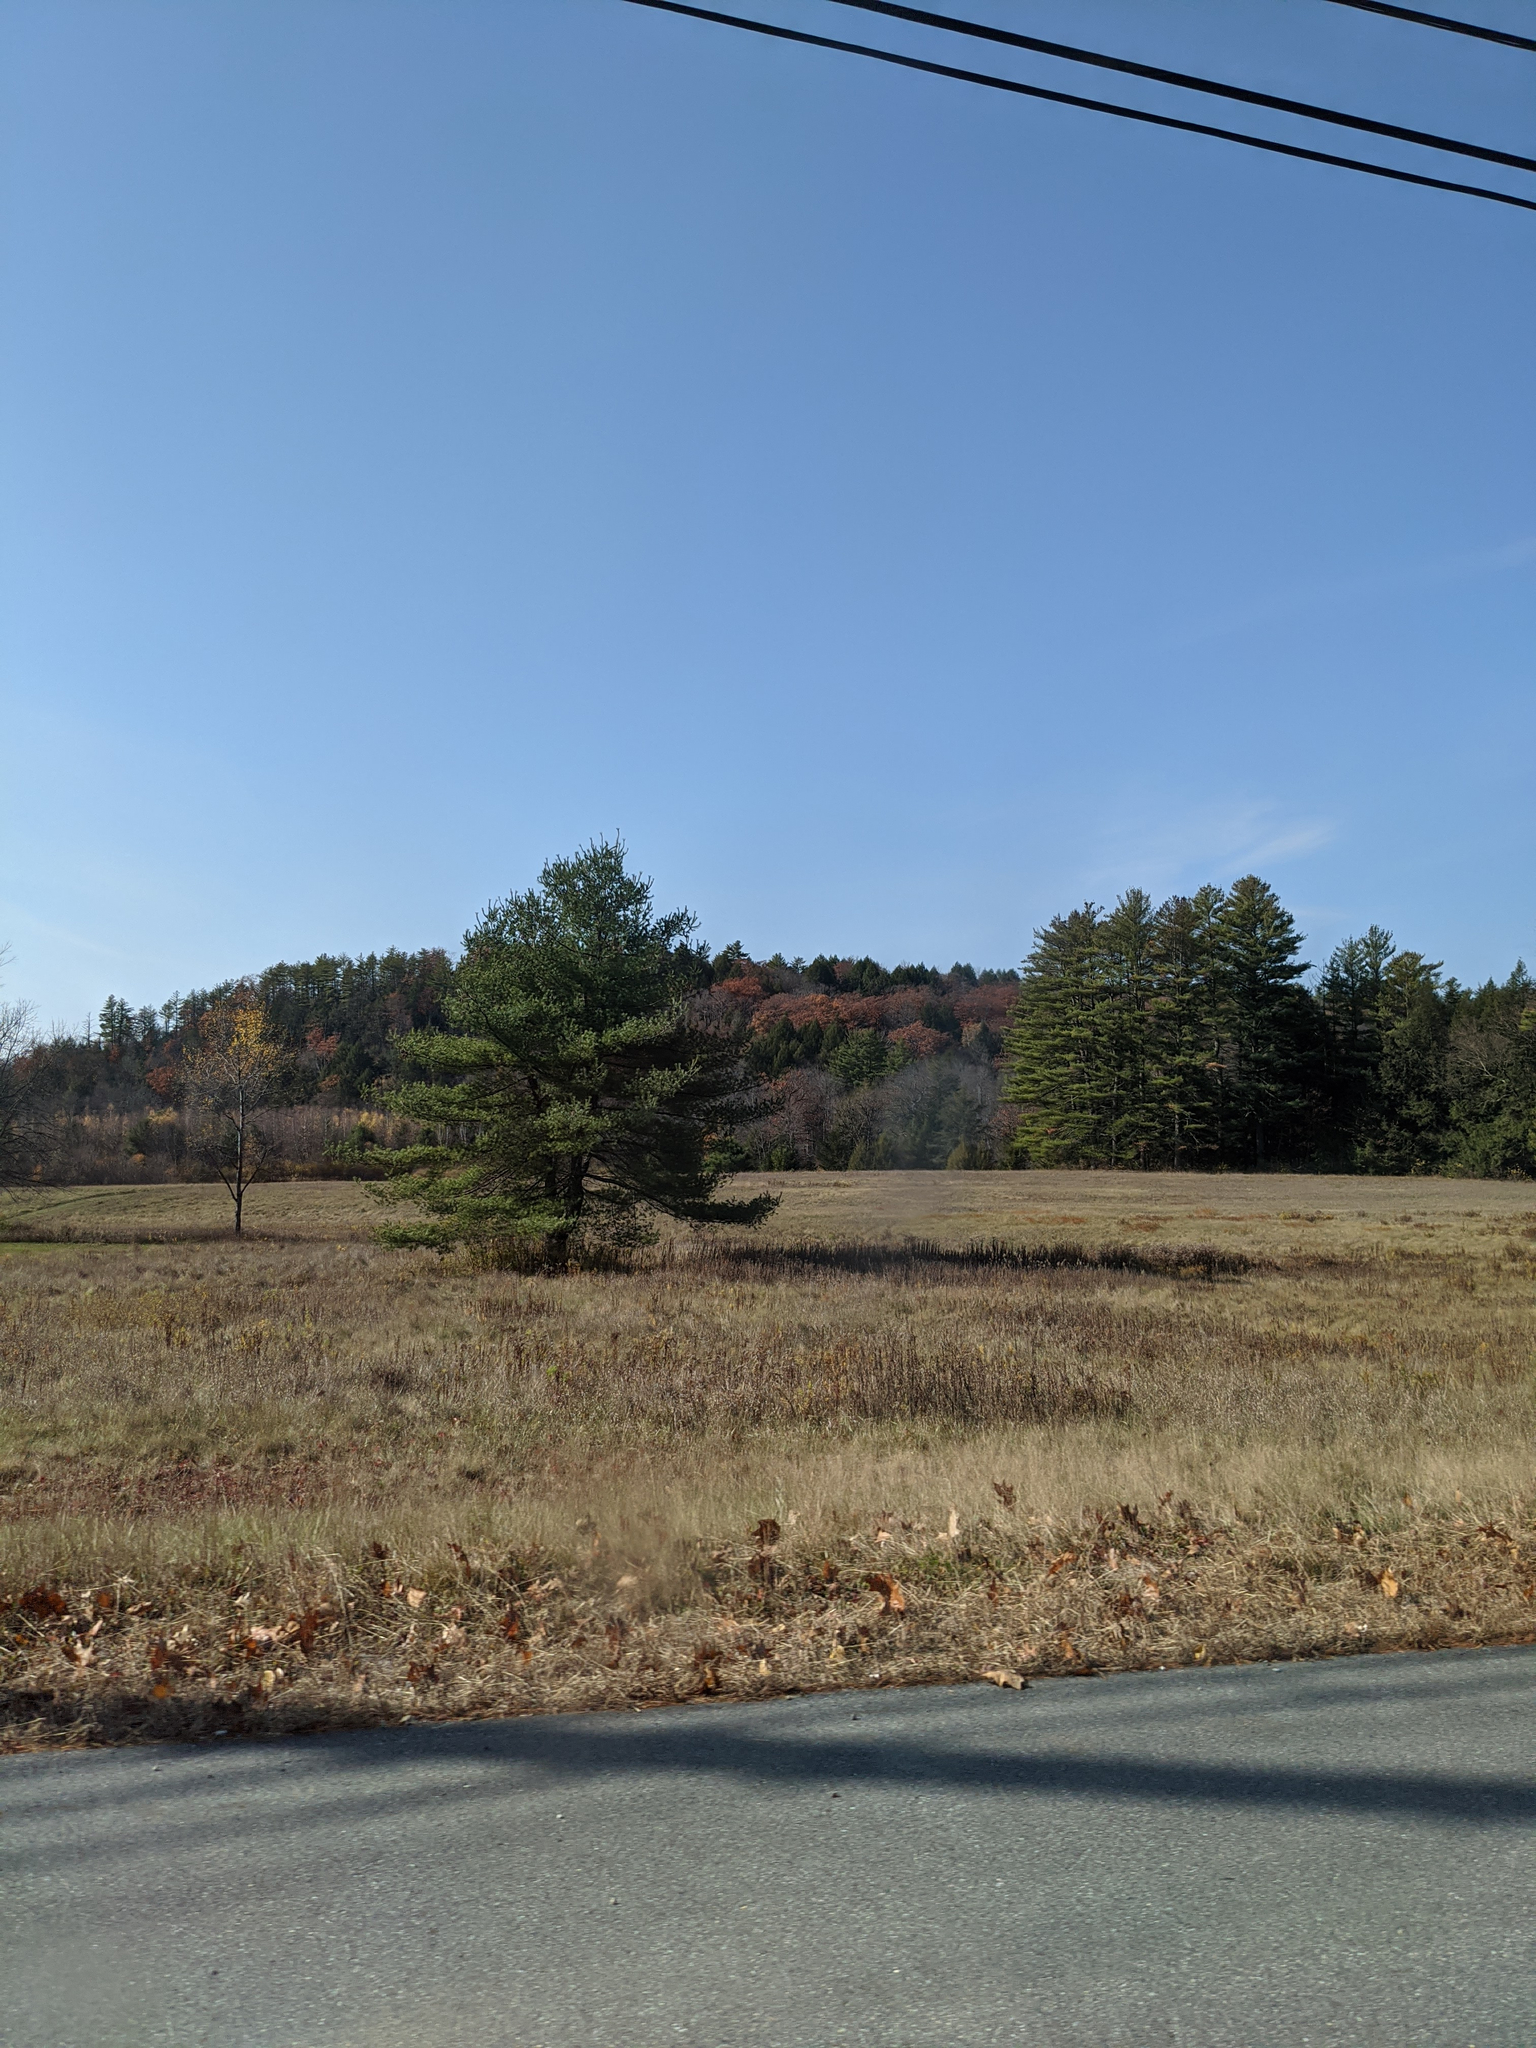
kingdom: Plantae
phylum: Tracheophyta
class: Pinopsida
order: Pinales
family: Pinaceae
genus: Pinus
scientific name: Pinus strobus
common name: Weymouth pine
